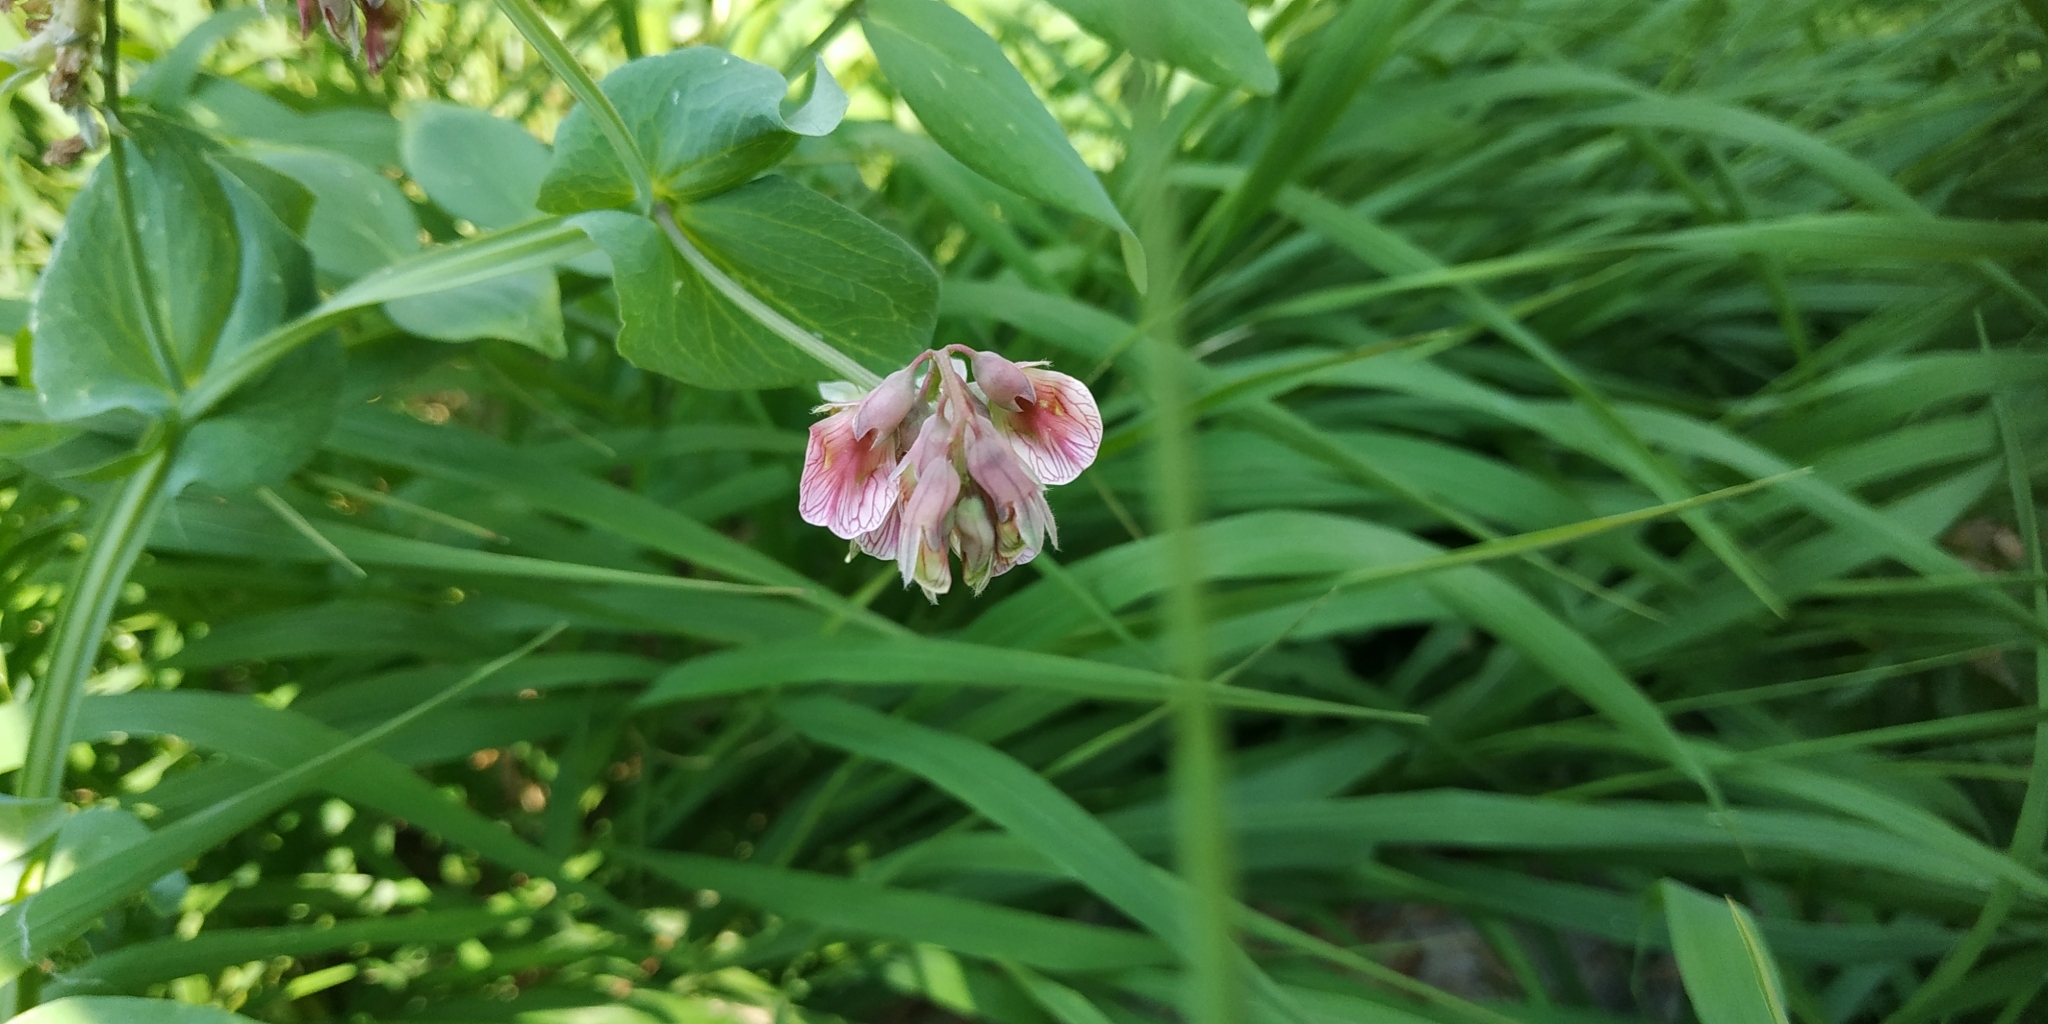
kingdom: Plantae
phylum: Tracheophyta
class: Magnoliopsida
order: Fabales
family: Fabaceae
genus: Lathyrus
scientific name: Lathyrus pisiformis
